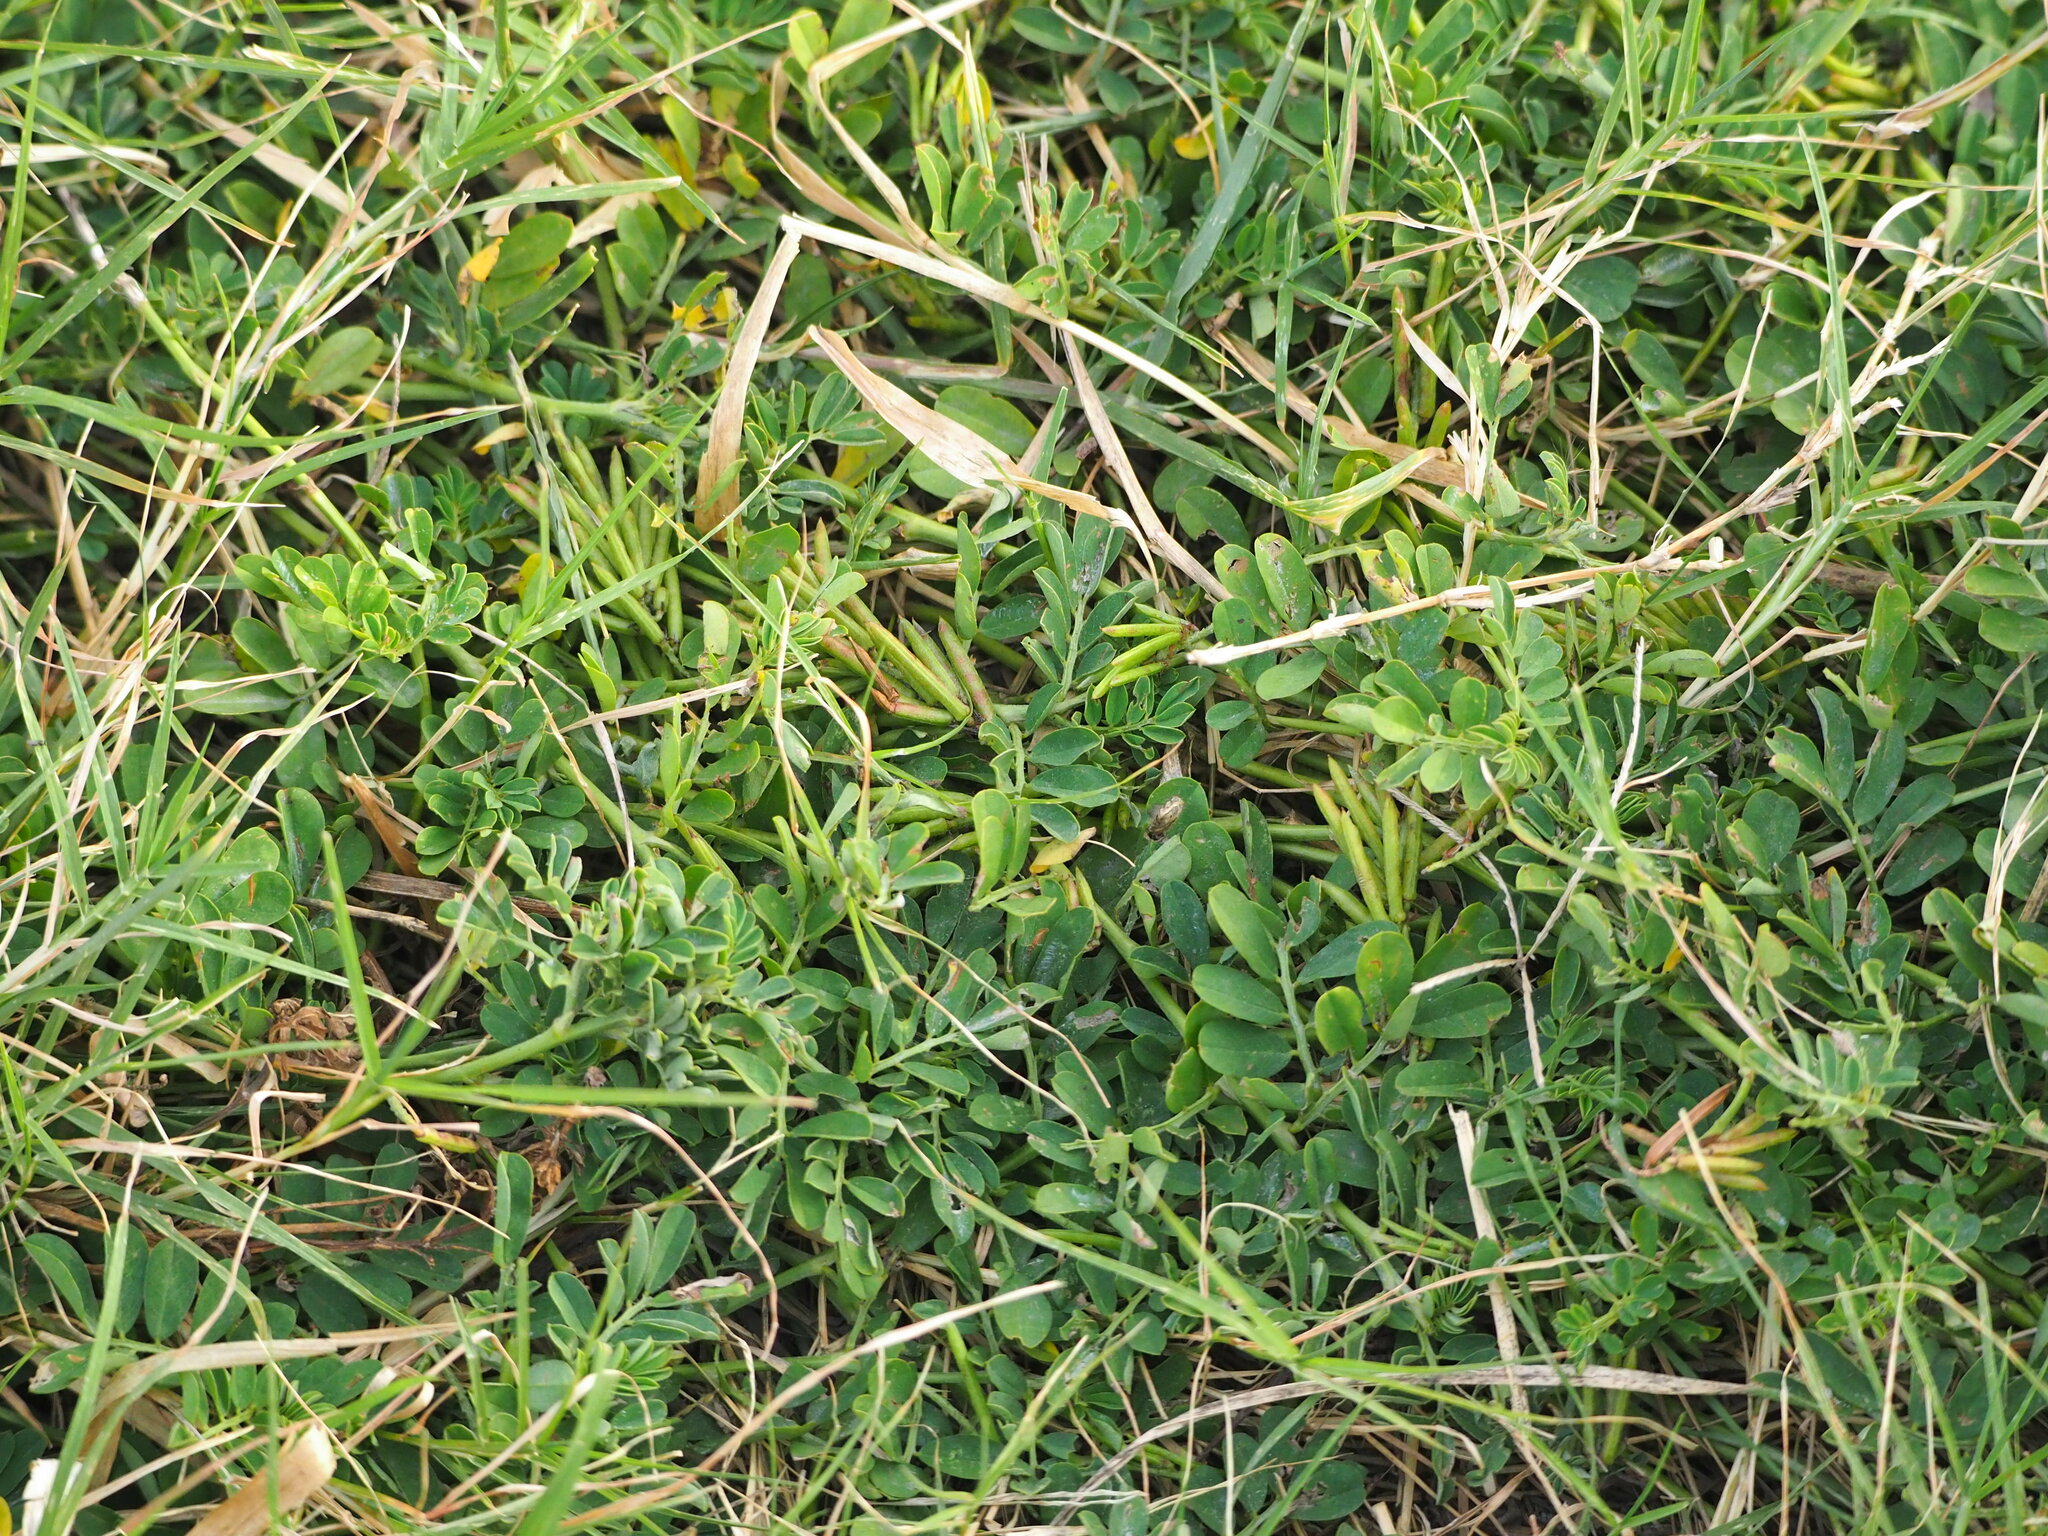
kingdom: Plantae
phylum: Tracheophyta
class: Magnoliopsida
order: Fabales
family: Fabaceae
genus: Indigofera
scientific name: Indigofera spicata
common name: Creeping indigo
